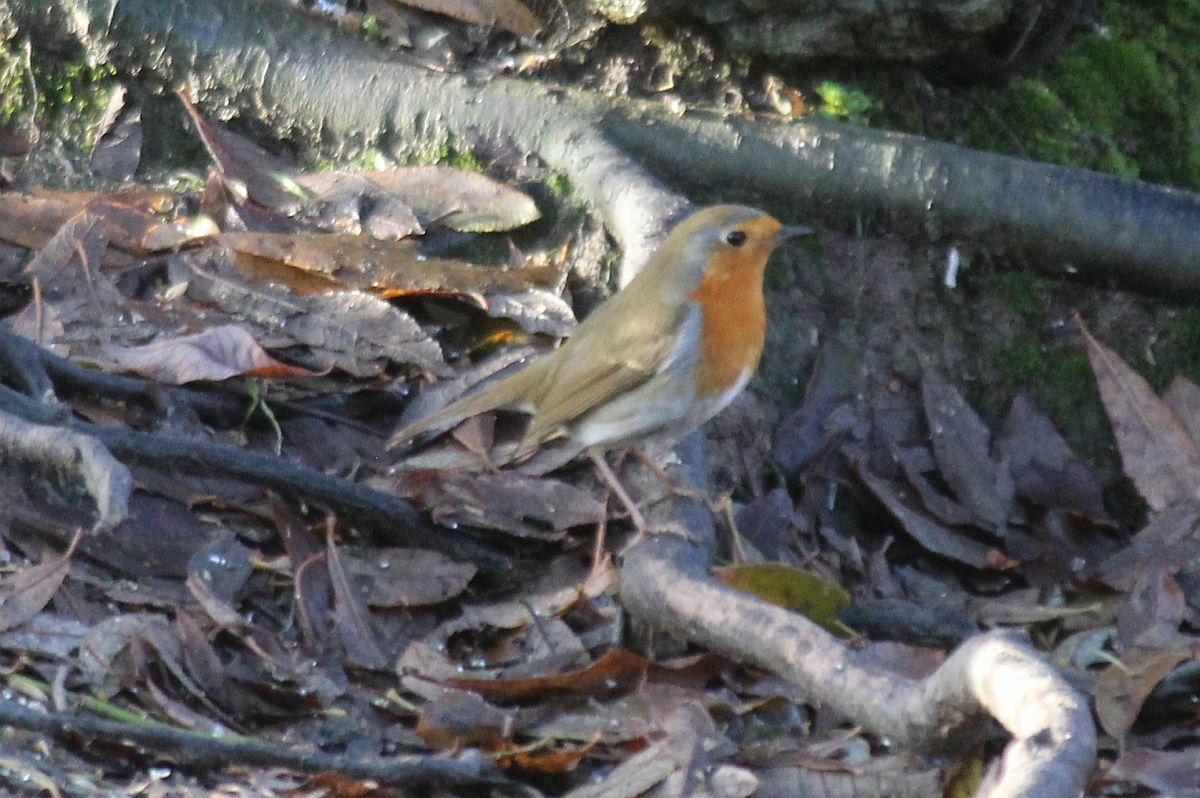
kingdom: Animalia
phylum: Chordata
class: Aves
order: Passeriformes
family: Muscicapidae
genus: Erithacus
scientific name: Erithacus rubecula
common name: European robin
